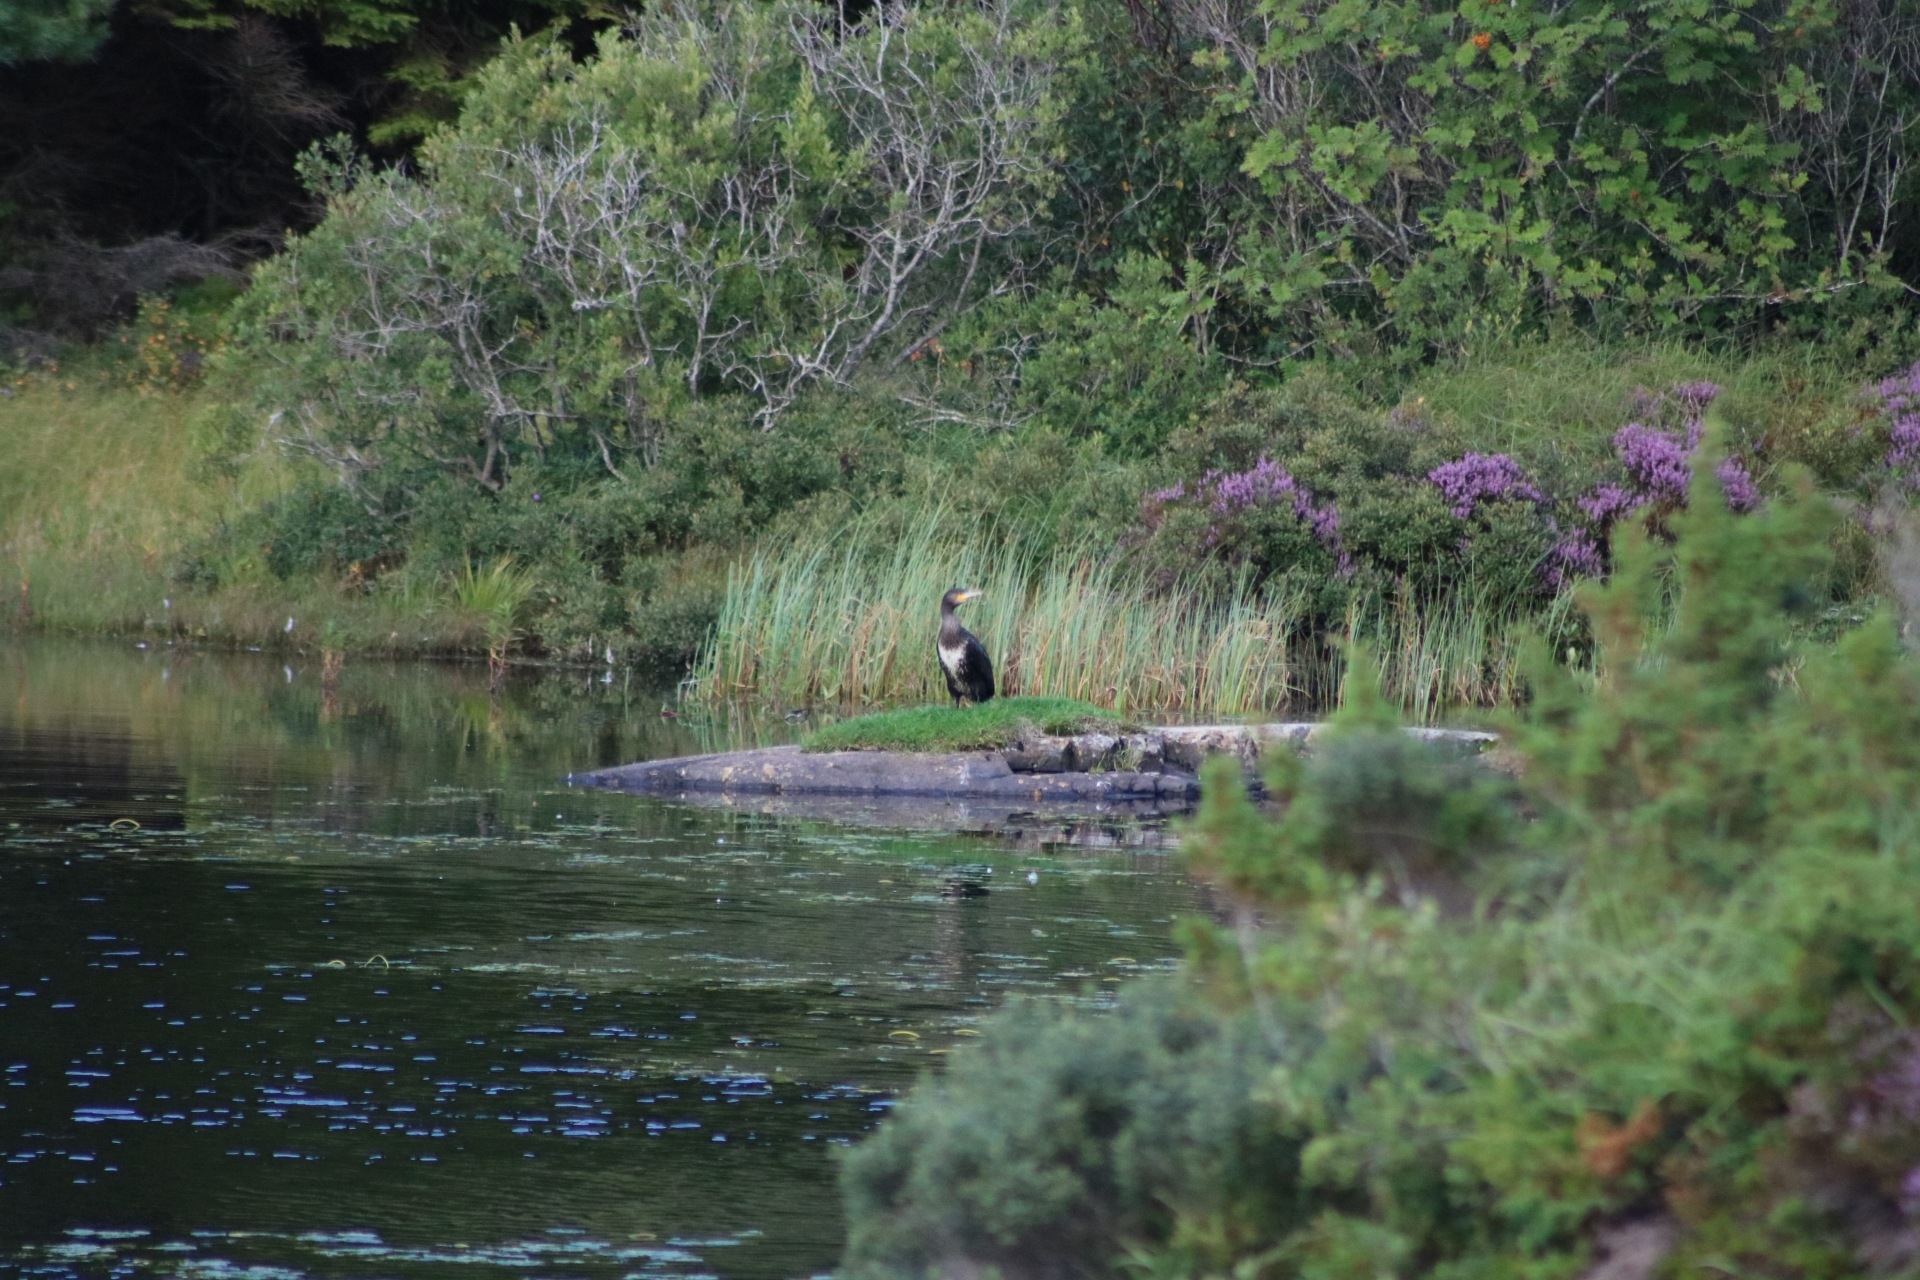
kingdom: Animalia
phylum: Chordata
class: Aves
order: Suliformes
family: Phalacrocoracidae
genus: Phalacrocorax
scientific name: Phalacrocorax carbo
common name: Great cormorant
